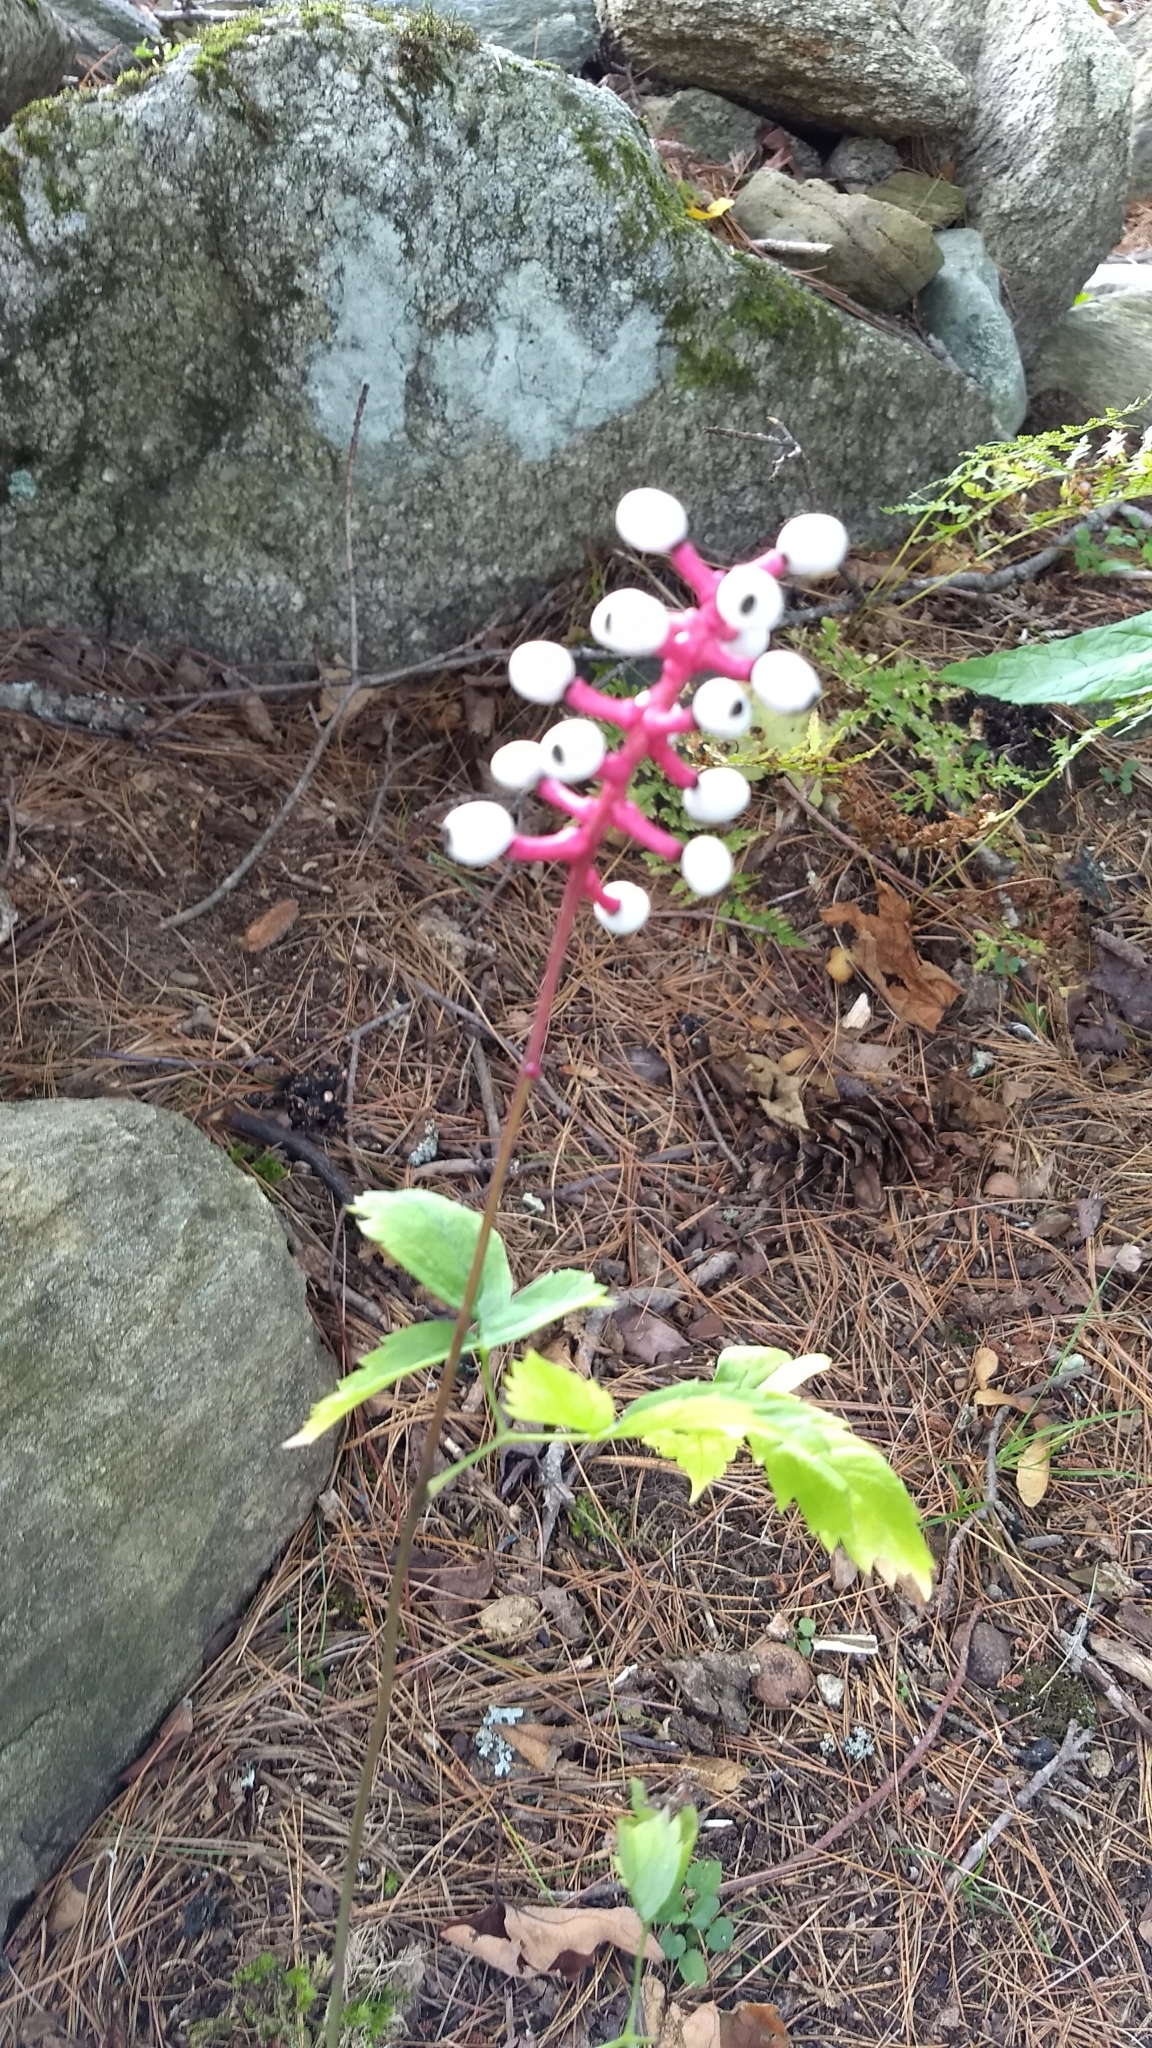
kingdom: Plantae
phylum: Tracheophyta
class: Magnoliopsida
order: Ranunculales
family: Ranunculaceae
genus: Actaea
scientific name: Actaea pachypoda
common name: Doll's-eyes
